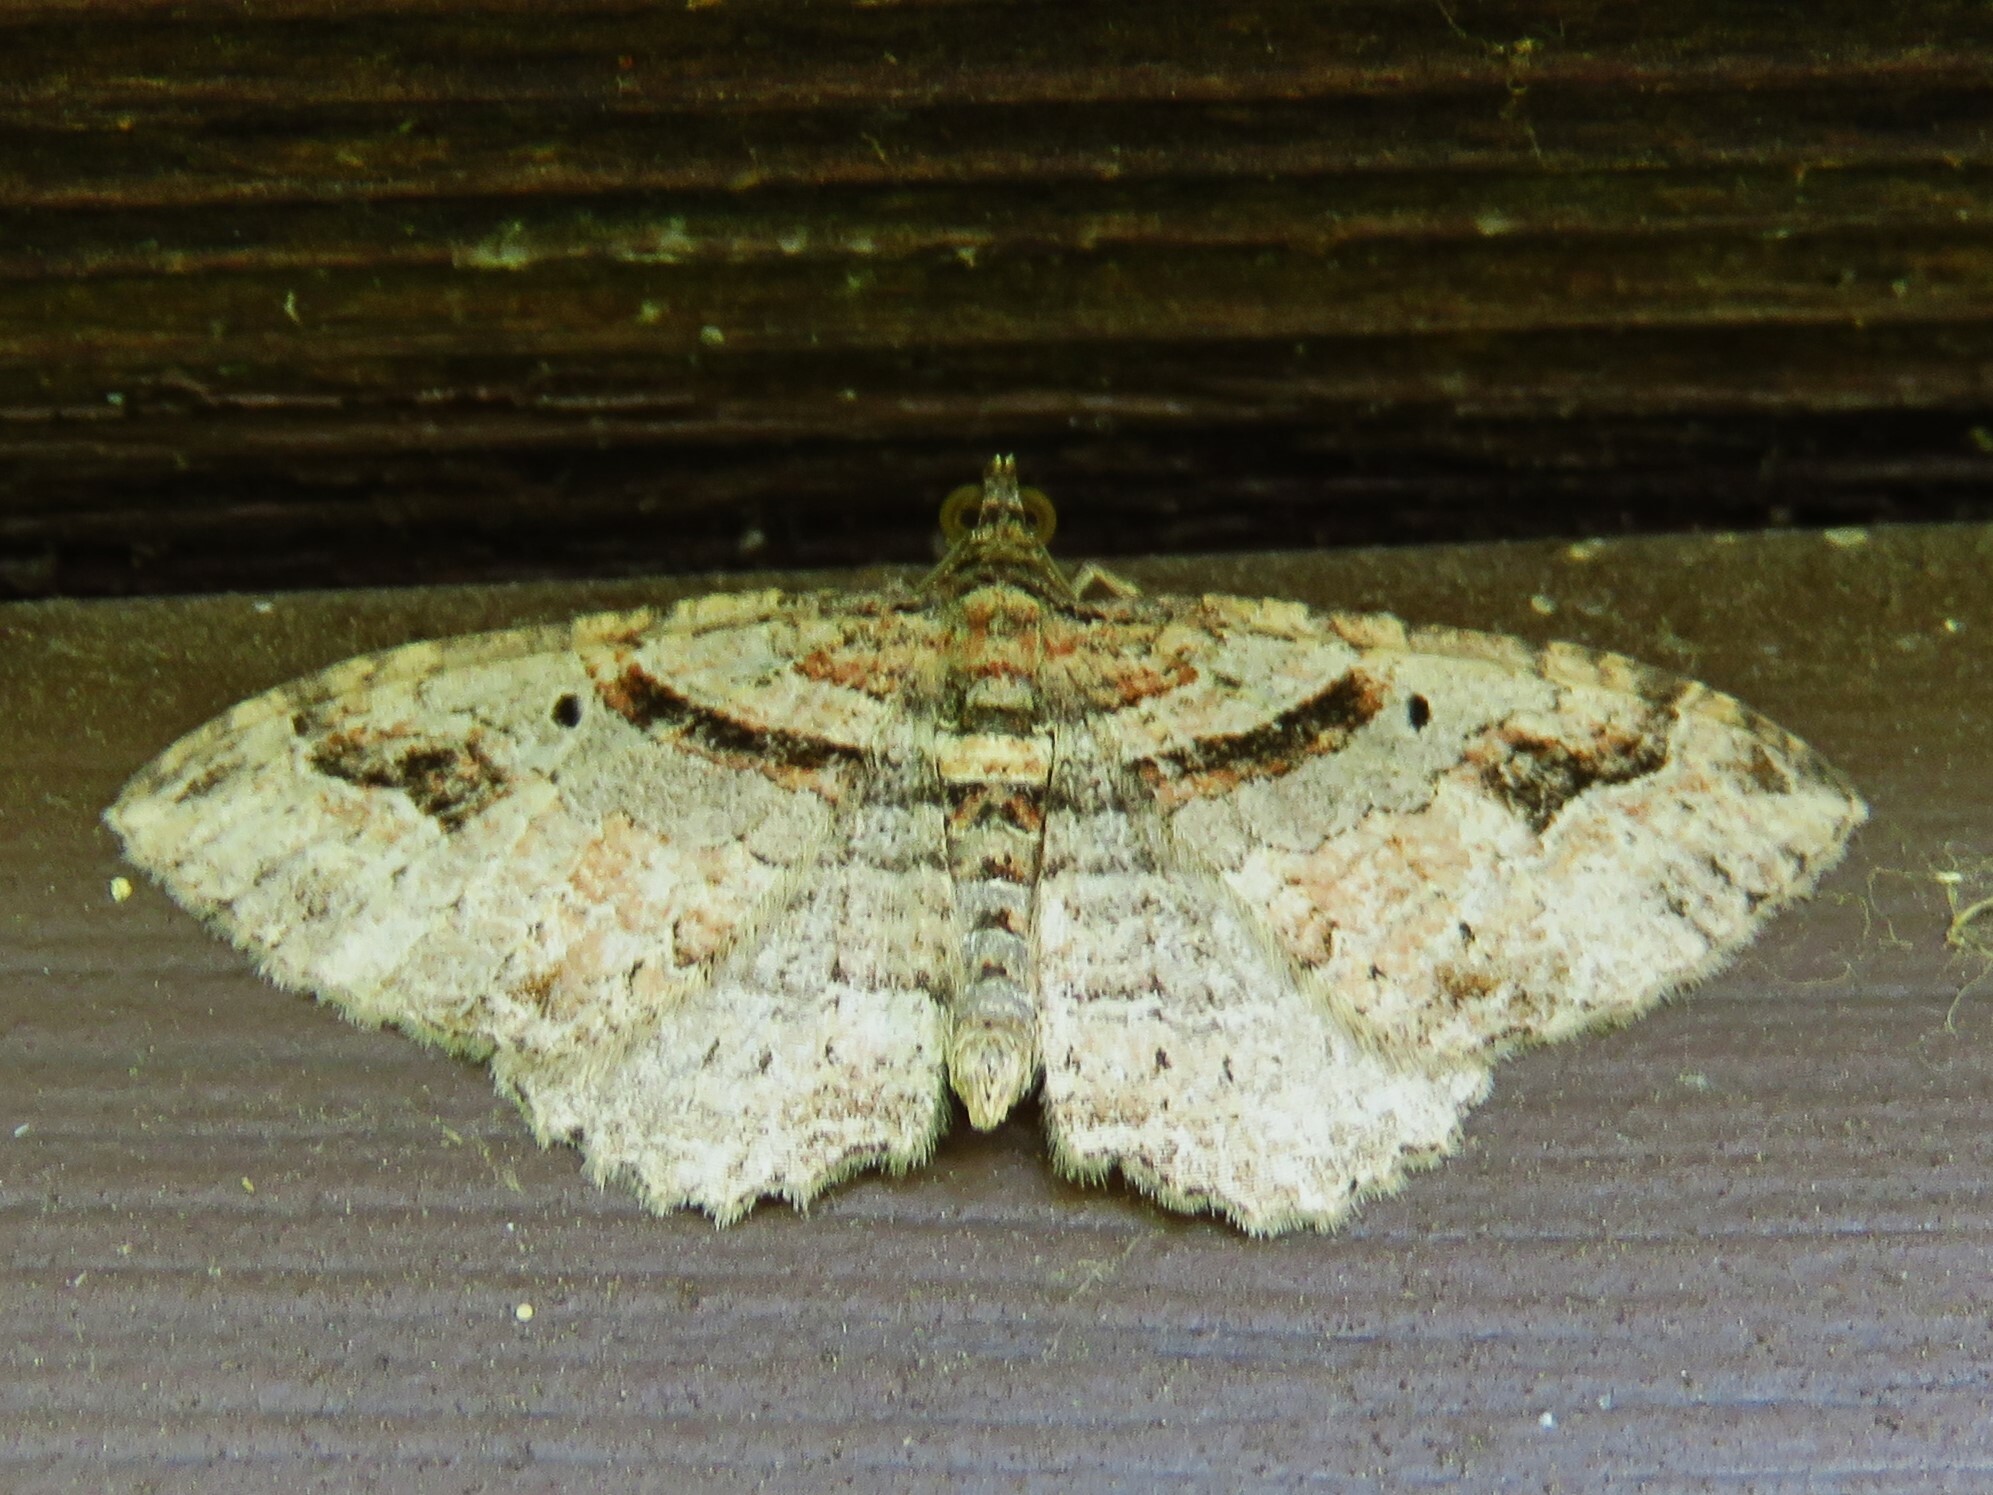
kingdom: Animalia
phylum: Arthropoda
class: Insecta
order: Lepidoptera
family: Geometridae
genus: Costaconvexa
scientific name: Costaconvexa centrostrigaria
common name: Bent-line carpet
